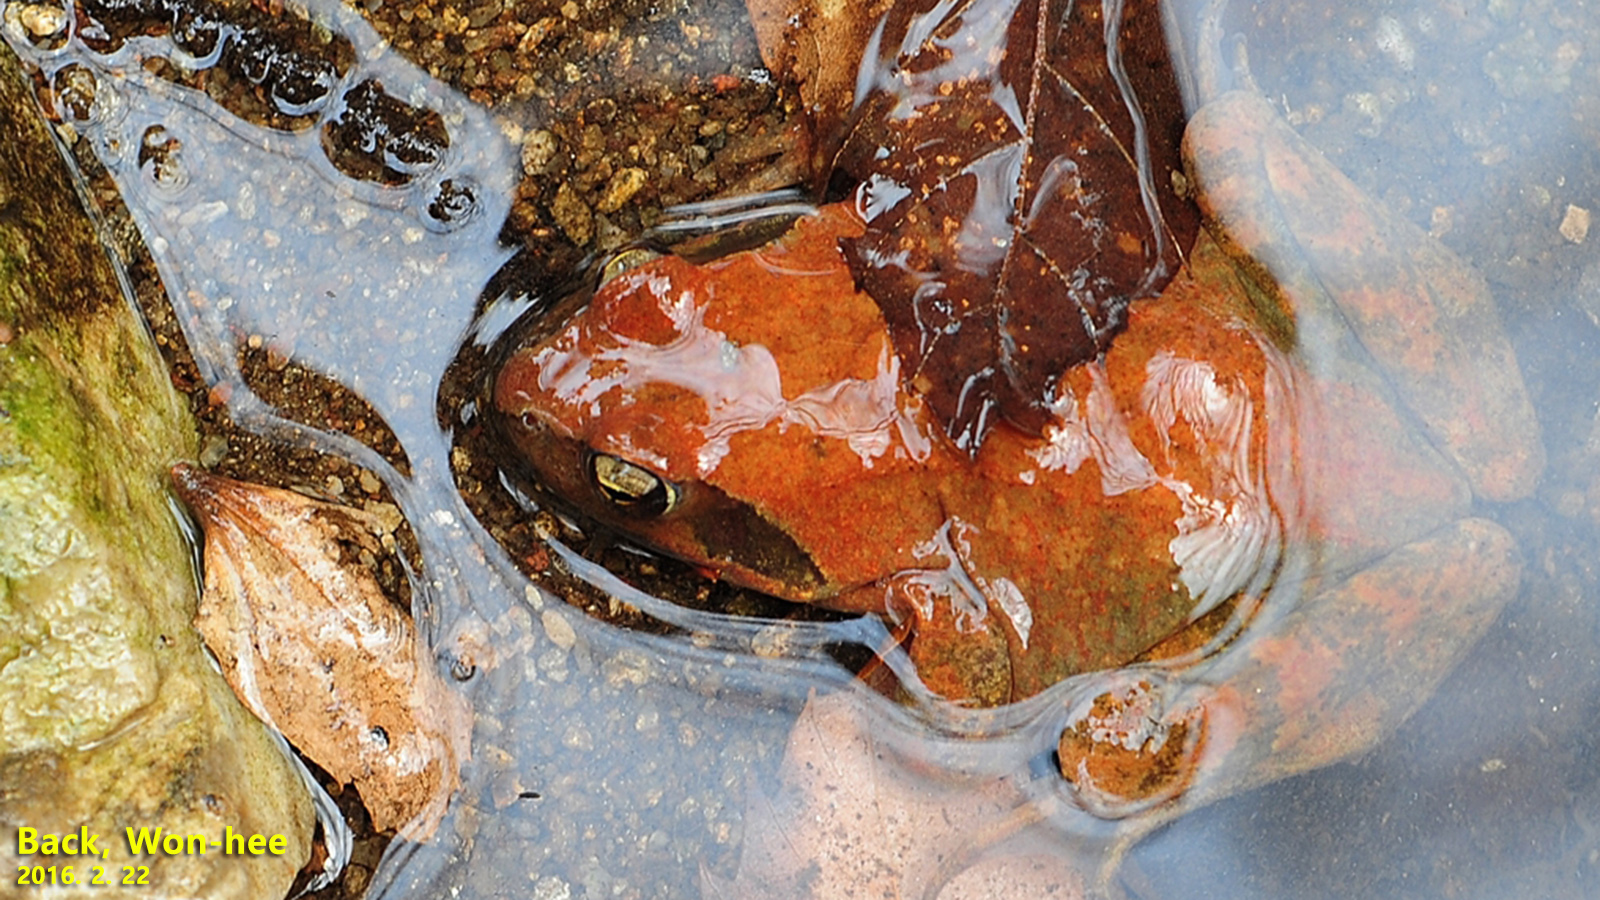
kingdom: Animalia
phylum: Chordata
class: Amphibia
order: Anura
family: Ranidae
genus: Rana
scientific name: Rana huanrenensis
